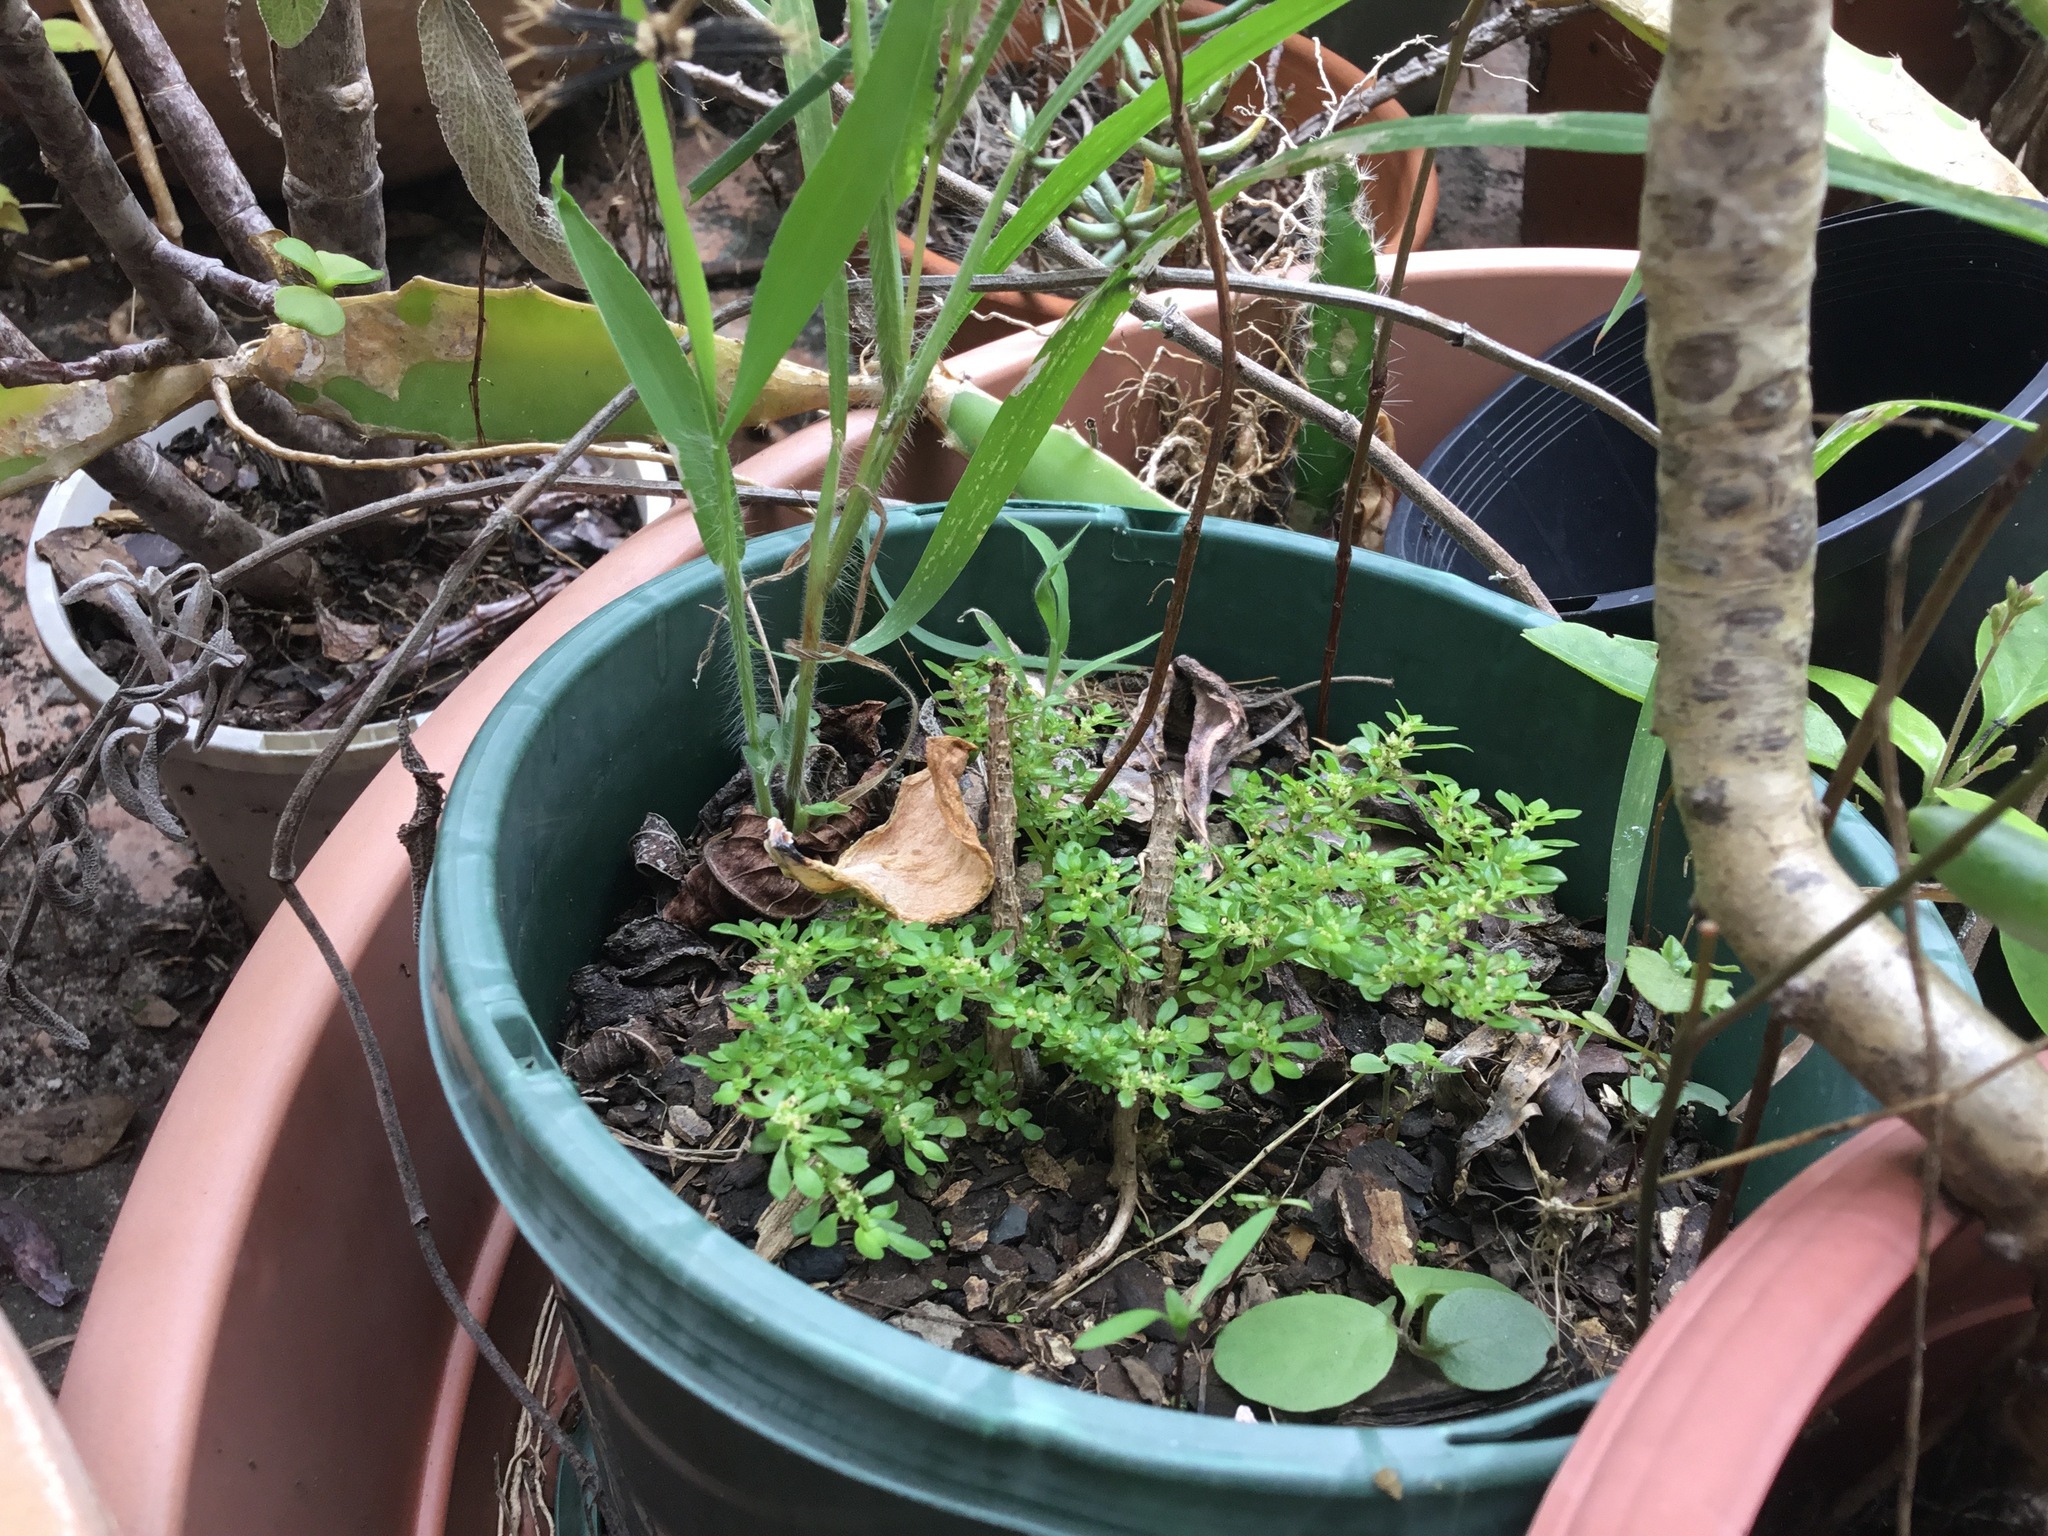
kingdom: Plantae
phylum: Tracheophyta
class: Magnoliopsida
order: Rosales
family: Urticaceae
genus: Pilea
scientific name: Pilea microphylla
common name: Artillery-plant
